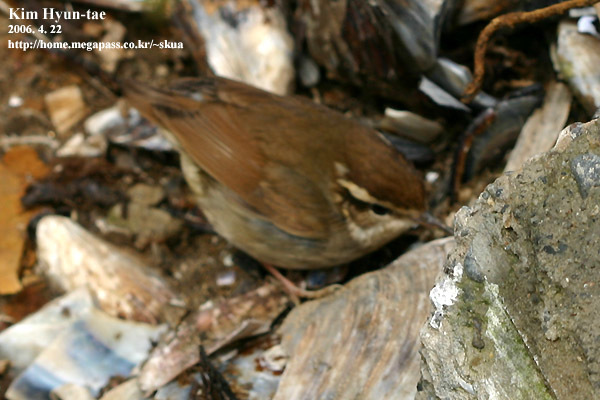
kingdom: Animalia
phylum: Chordata
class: Aves
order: Passeriformes
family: Cettiidae
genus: Urosphena
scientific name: Urosphena squameiceps
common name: Asian stubtail
